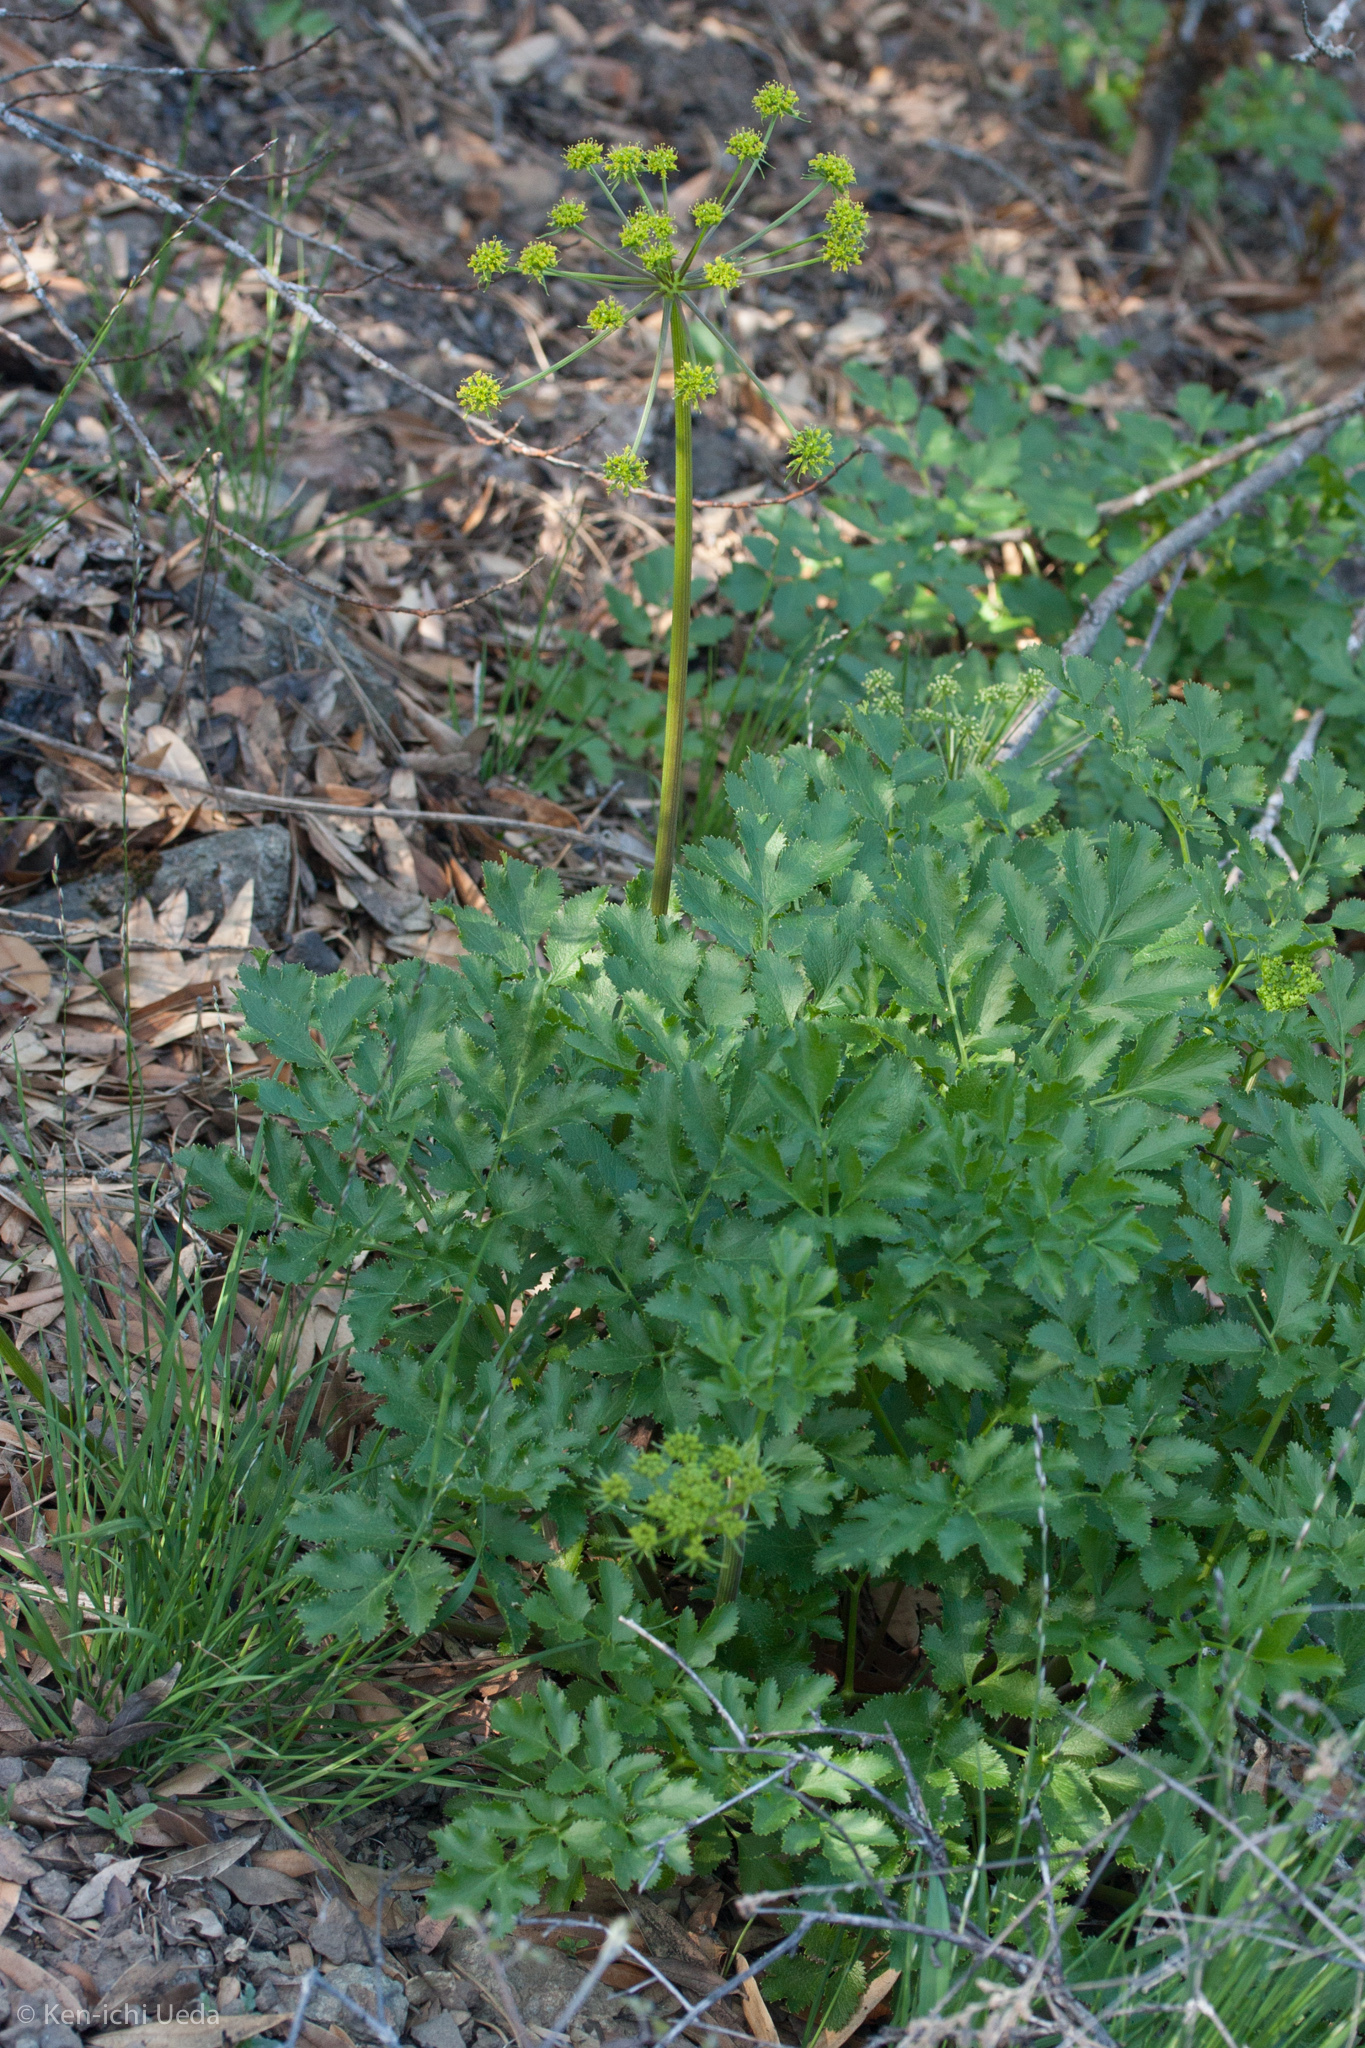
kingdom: Plantae
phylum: Tracheophyta
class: Magnoliopsida
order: Apiales
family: Apiaceae
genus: Tauschia
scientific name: Tauschia hartwegii
